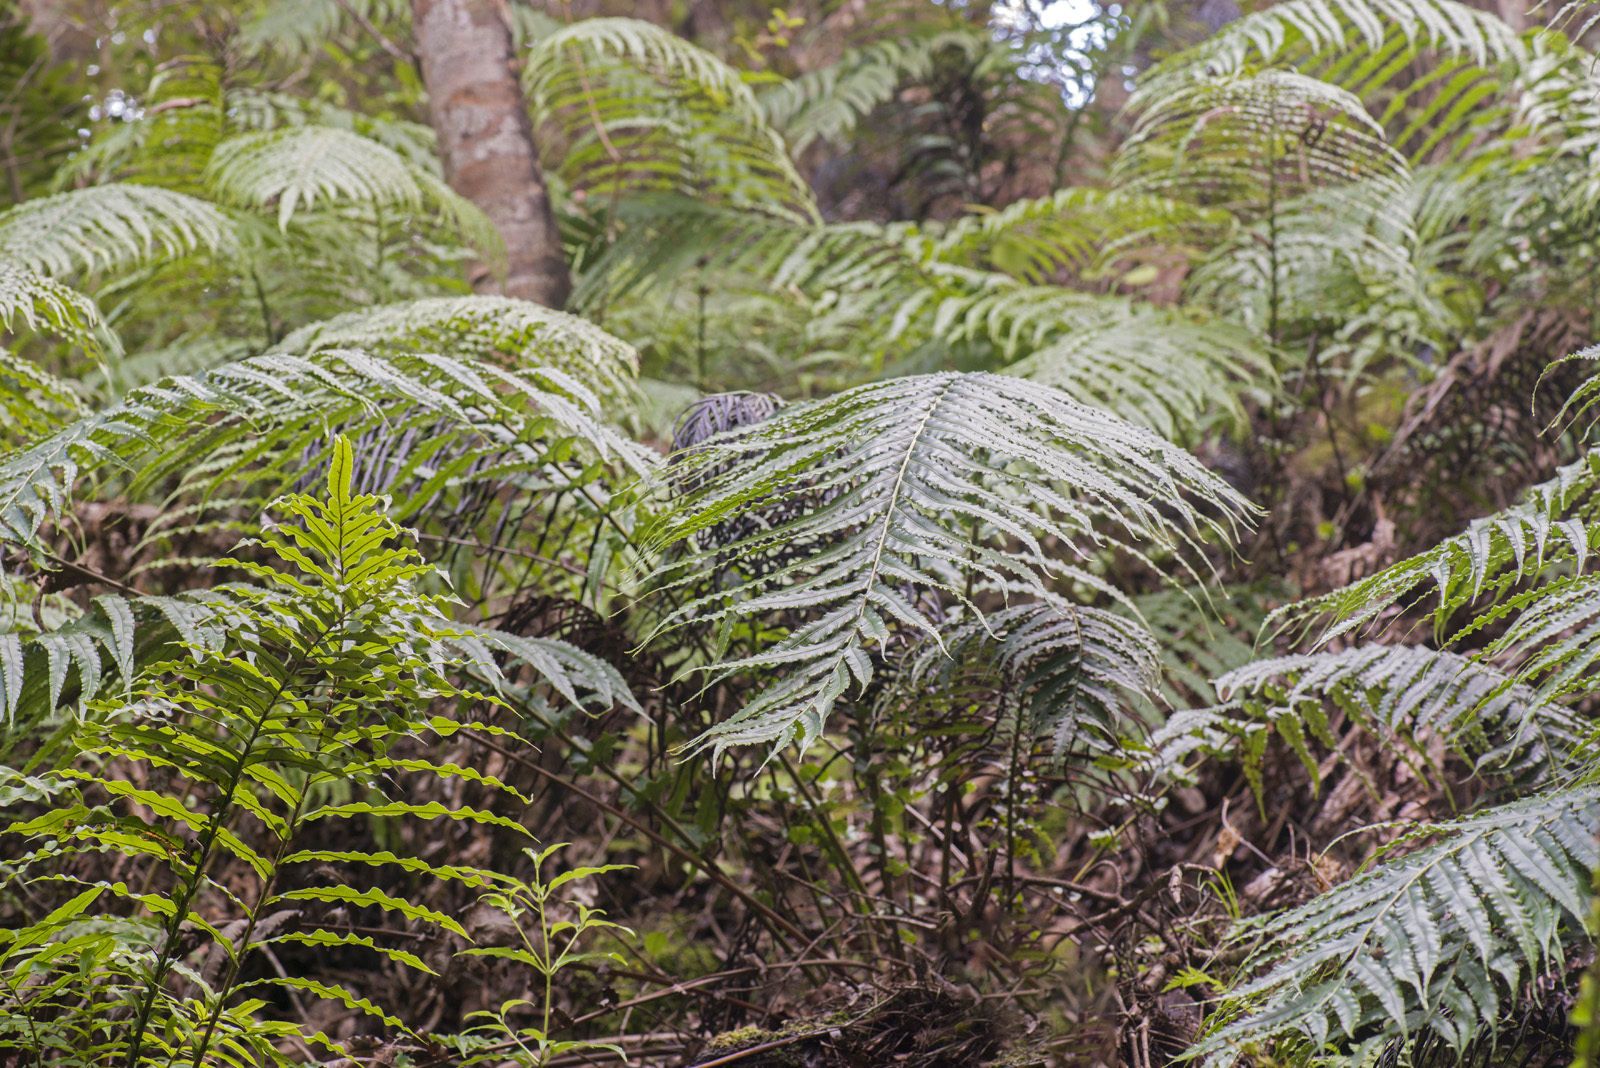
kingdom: Plantae
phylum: Tracheophyta
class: Polypodiopsida
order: Polypodiales
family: Blechnaceae
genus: Parablechnum
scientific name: Parablechnum novae-zelandiae
